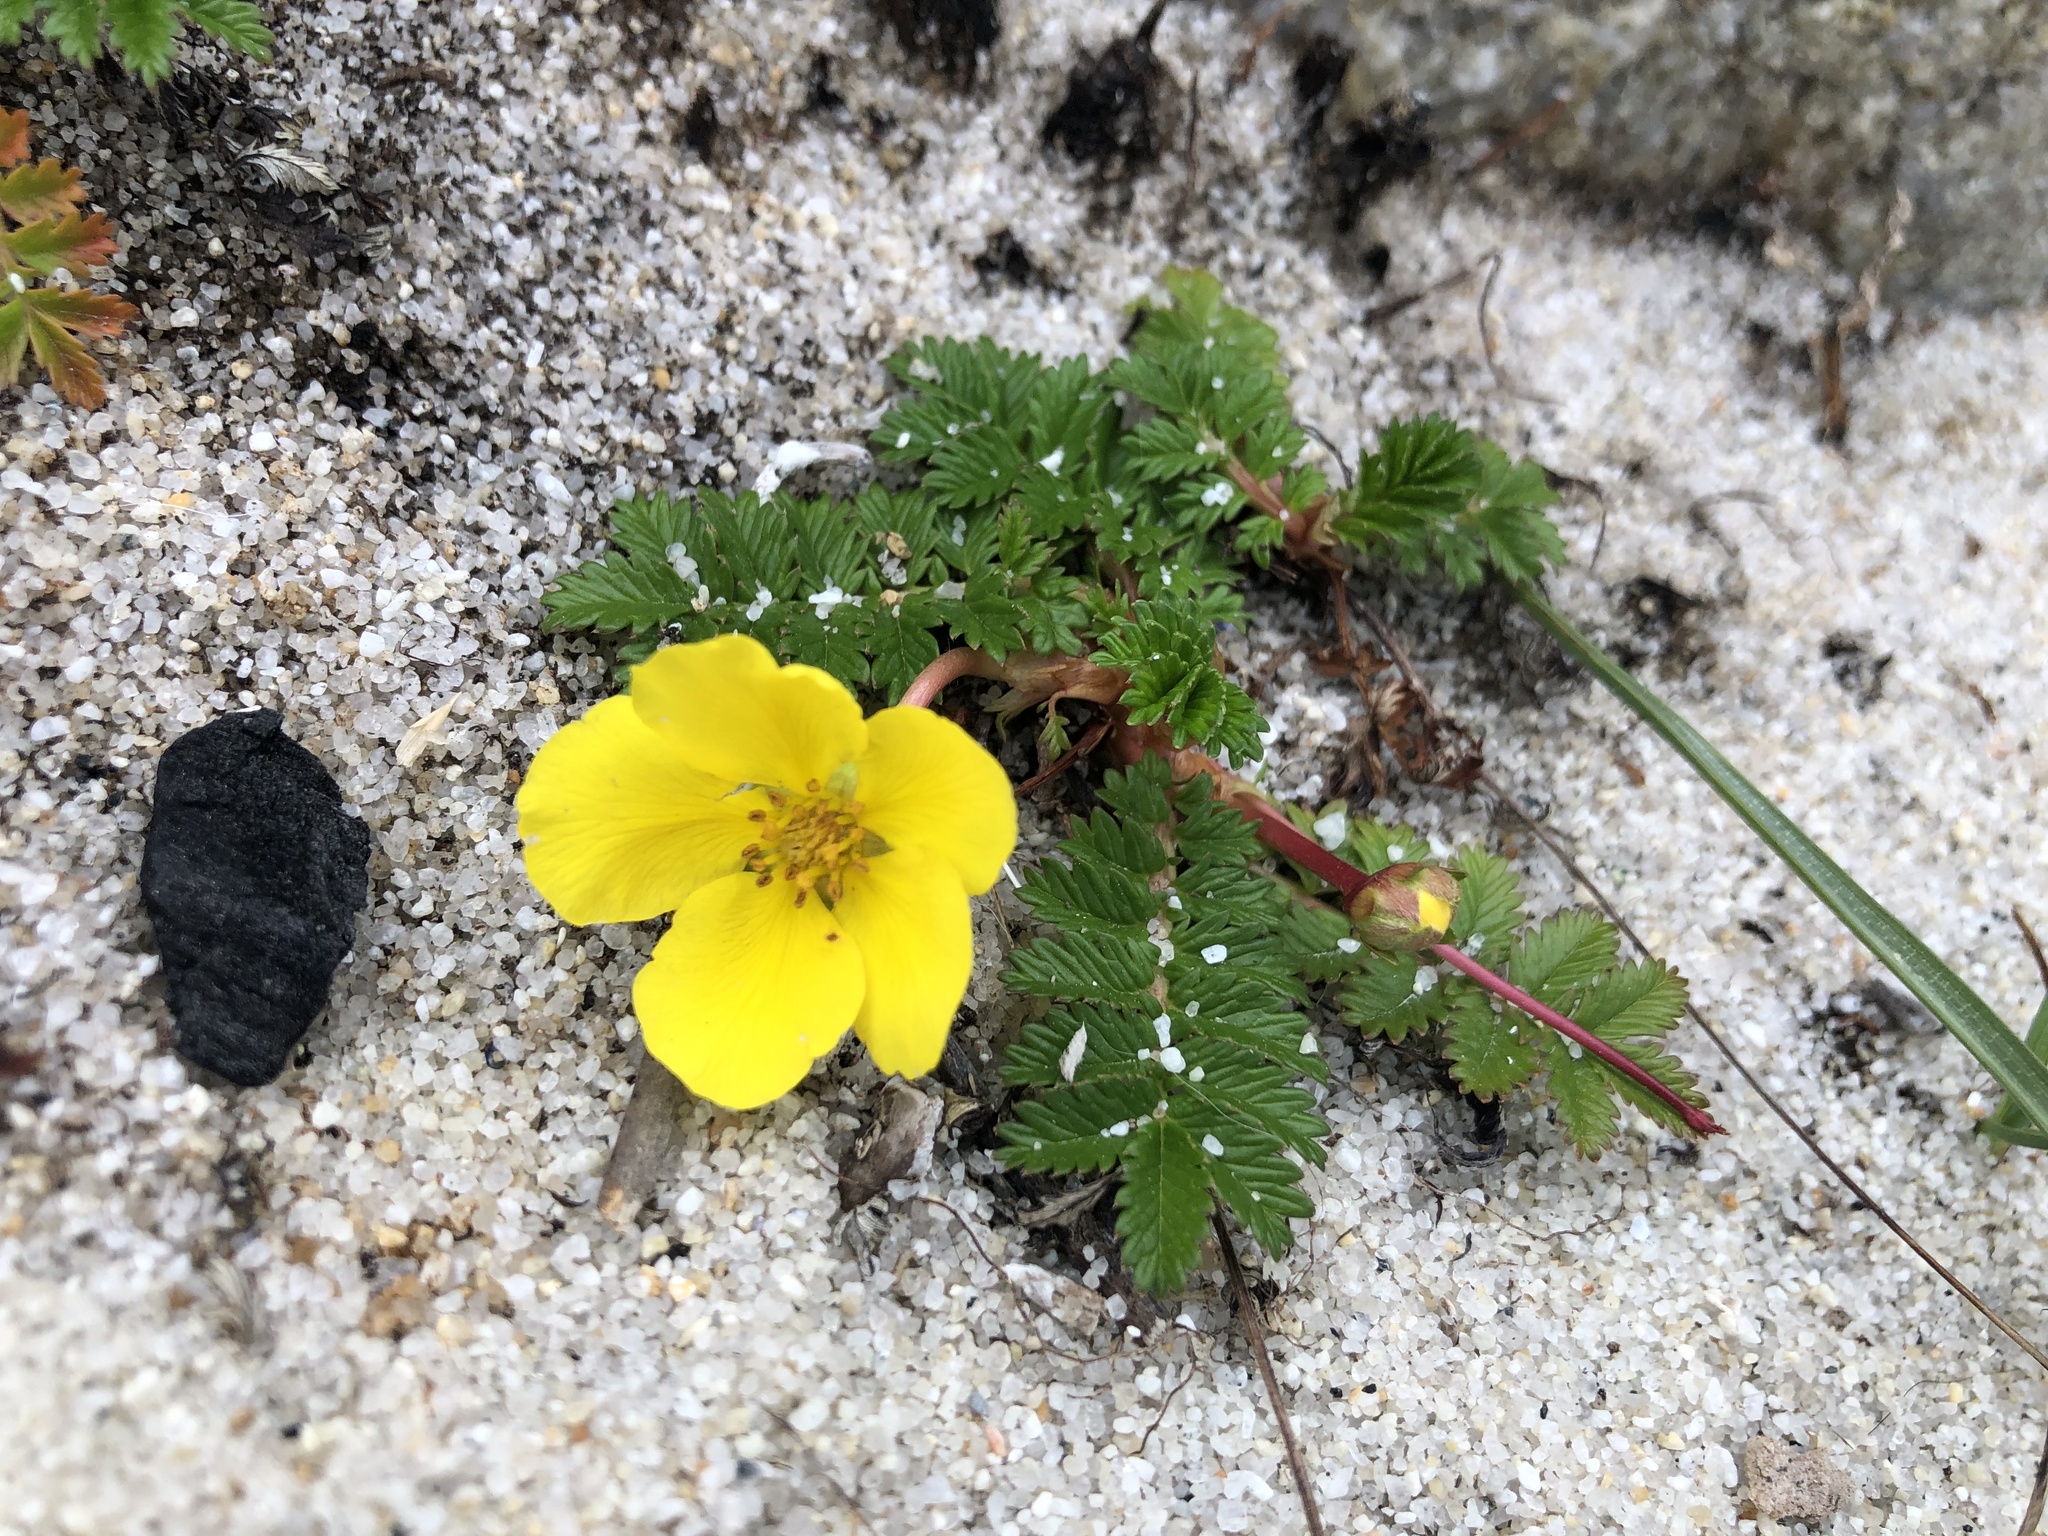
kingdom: Plantae
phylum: Tracheophyta
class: Magnoliopsida
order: Rosales
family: Rosaceae
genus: Argentina
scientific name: Argentina anserina
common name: Common silverweed
